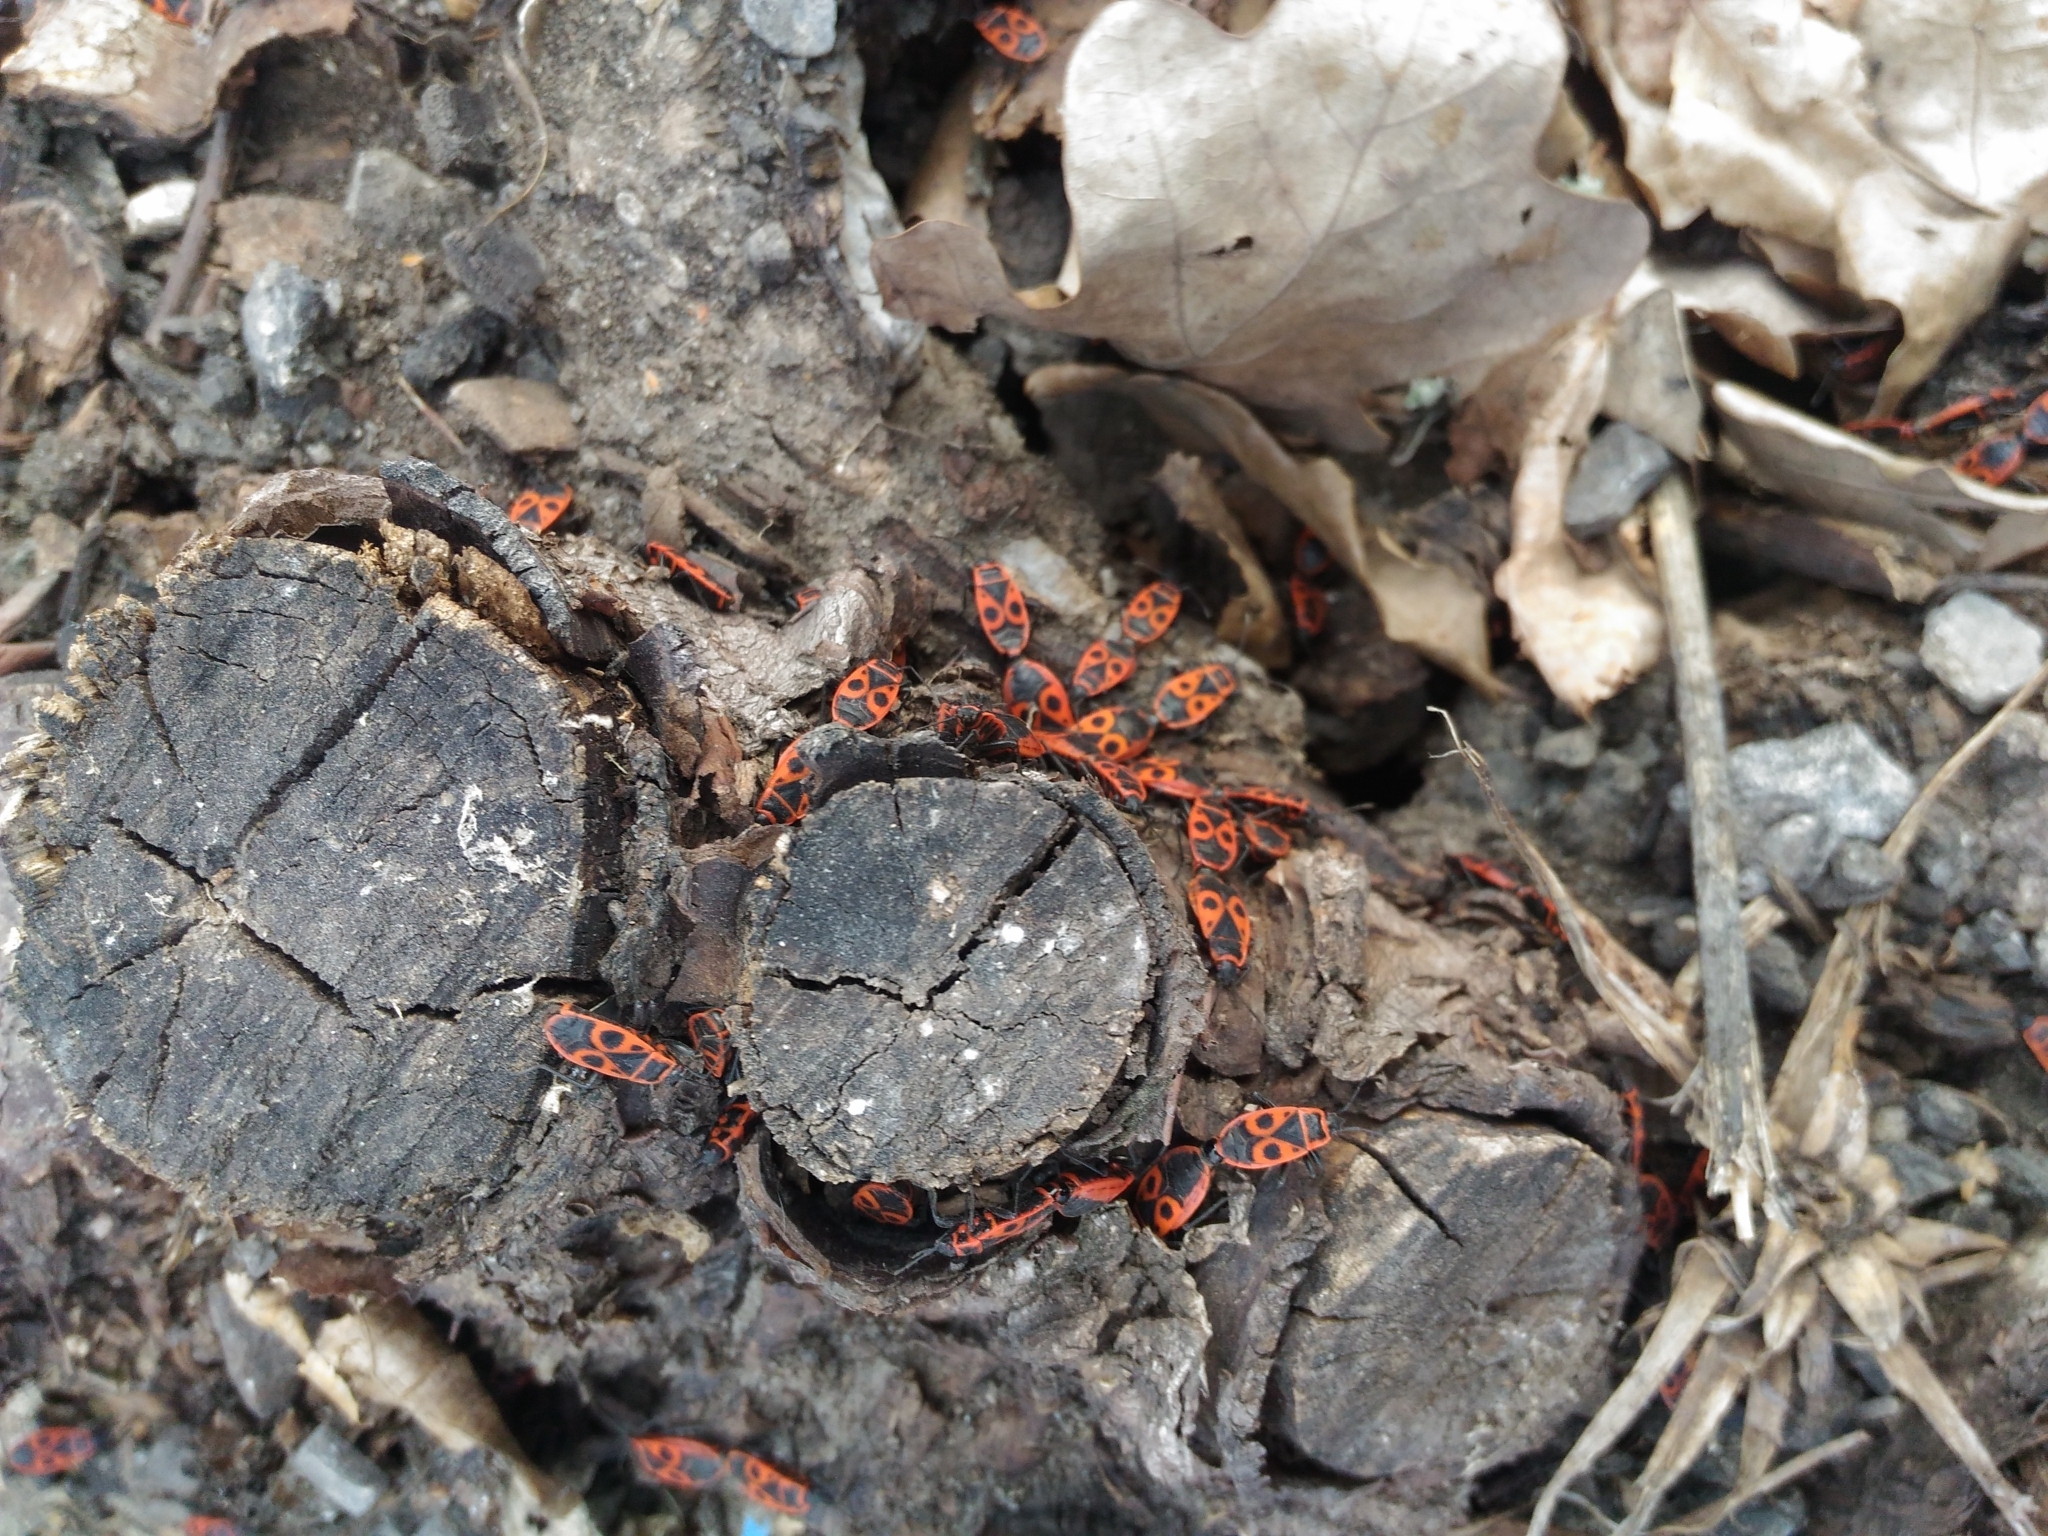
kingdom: Animalia
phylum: Arthropoda
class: Insecta
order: Hemiptera
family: Pyrrhocoridae
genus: Pyrrhocoris
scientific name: Pyrrhocoris apterus
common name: Firebug
